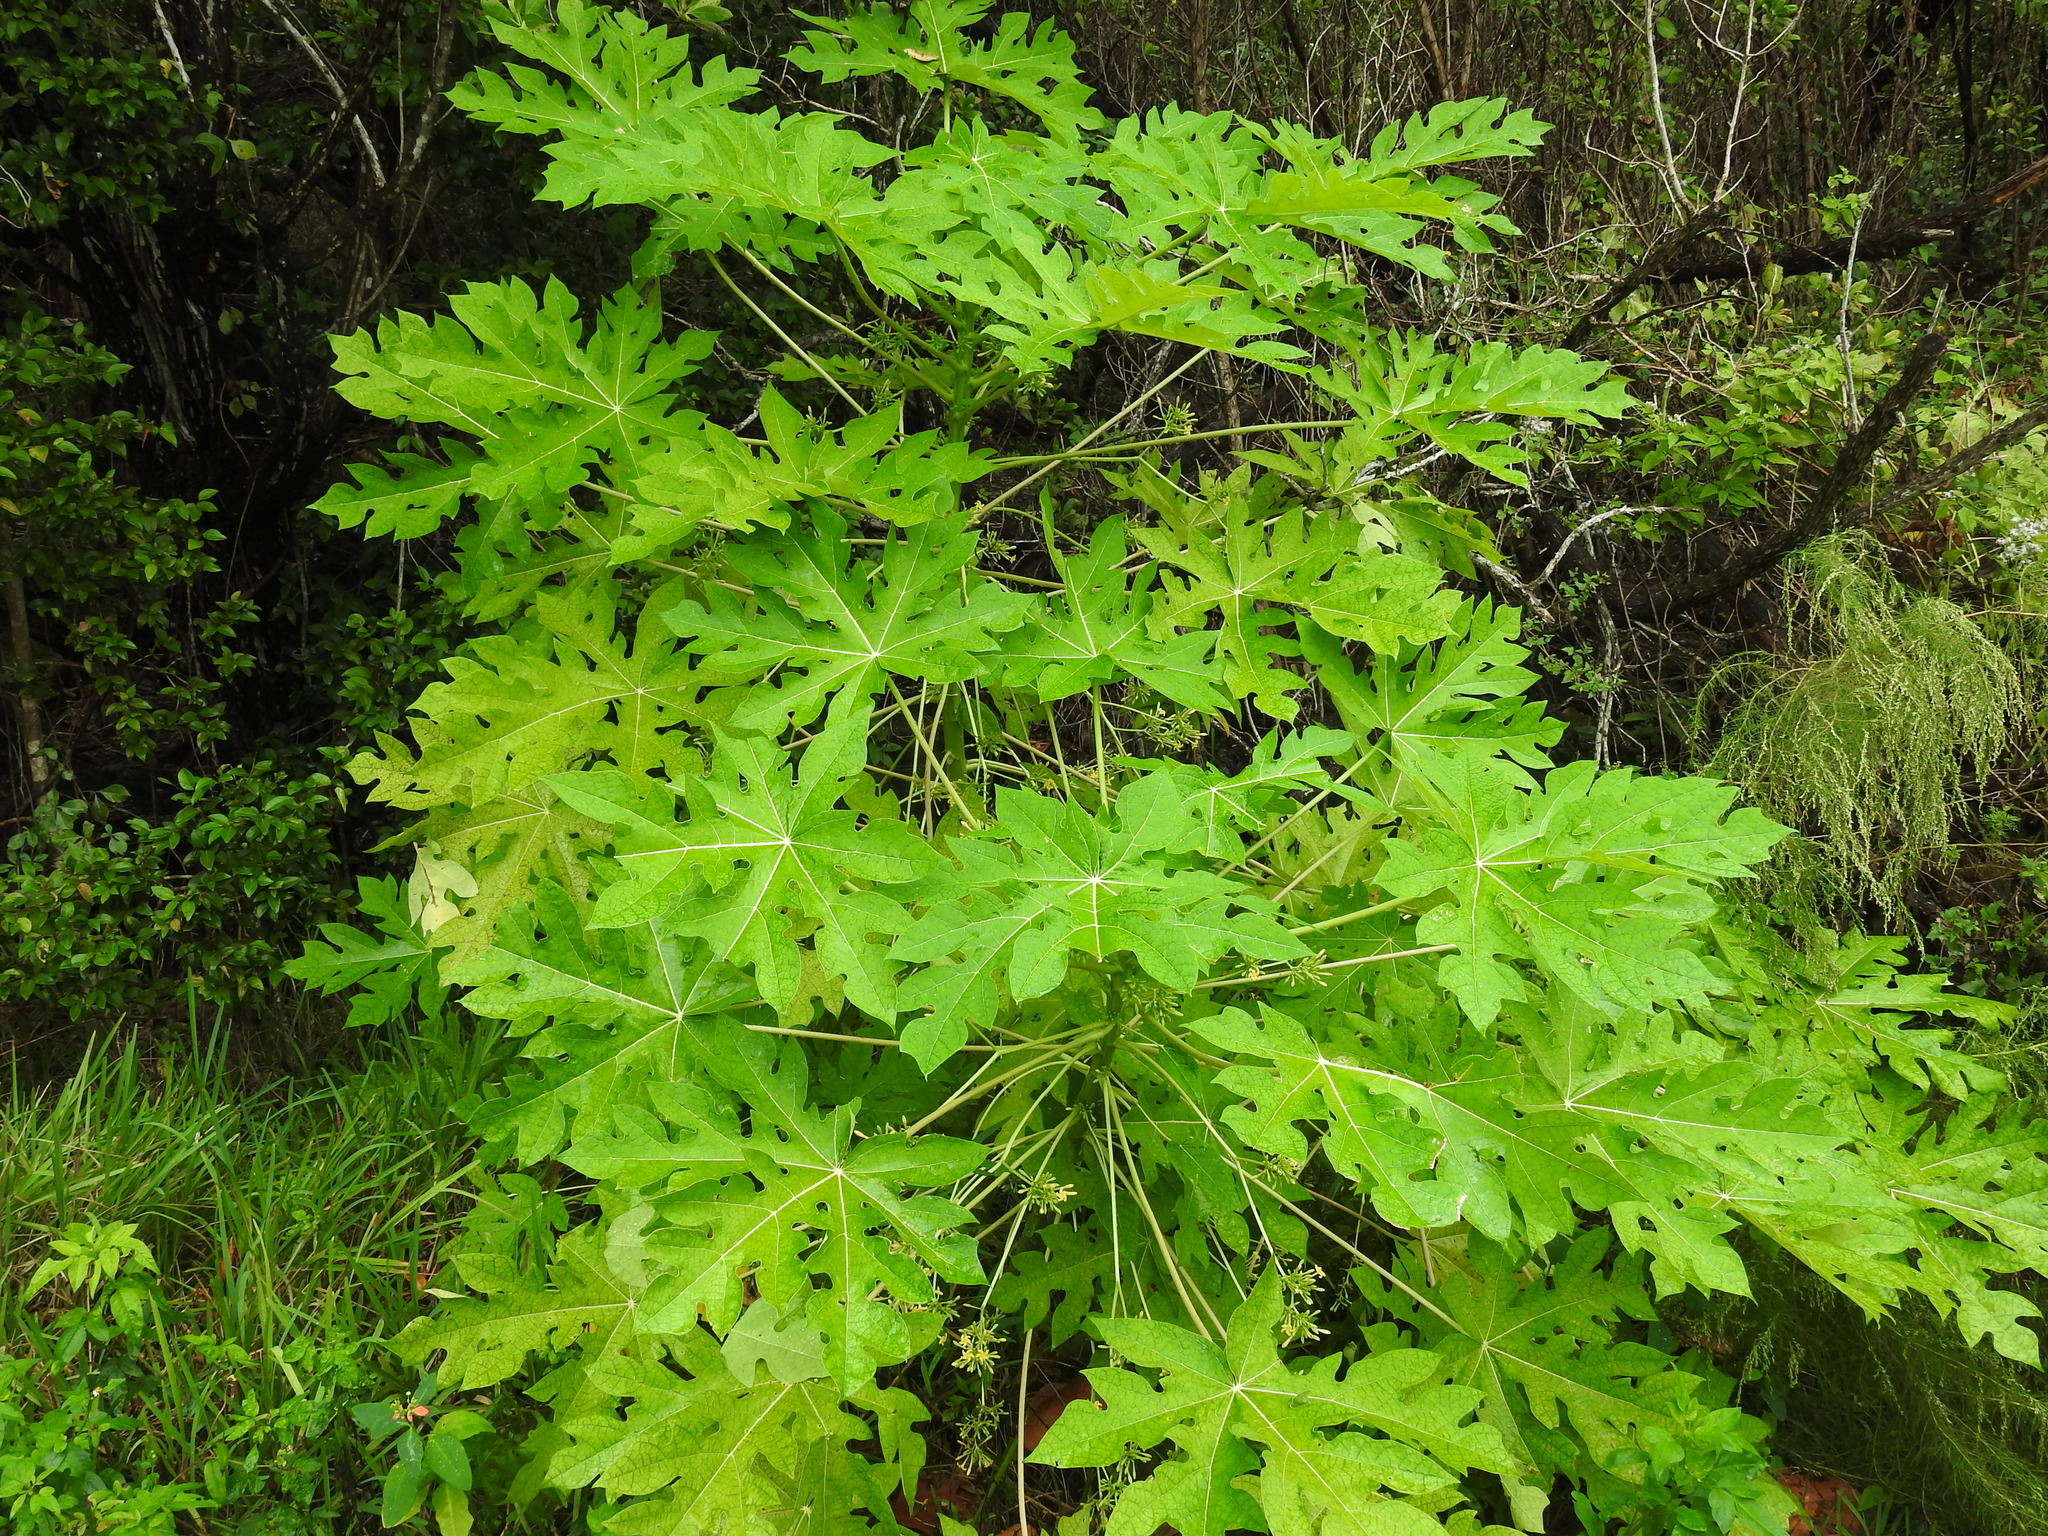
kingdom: Plantae
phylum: Tracheophyta
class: Magnoliopsida
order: Brassicales
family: Caricaceae
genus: Carica
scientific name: Carica papaya
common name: Papaya
